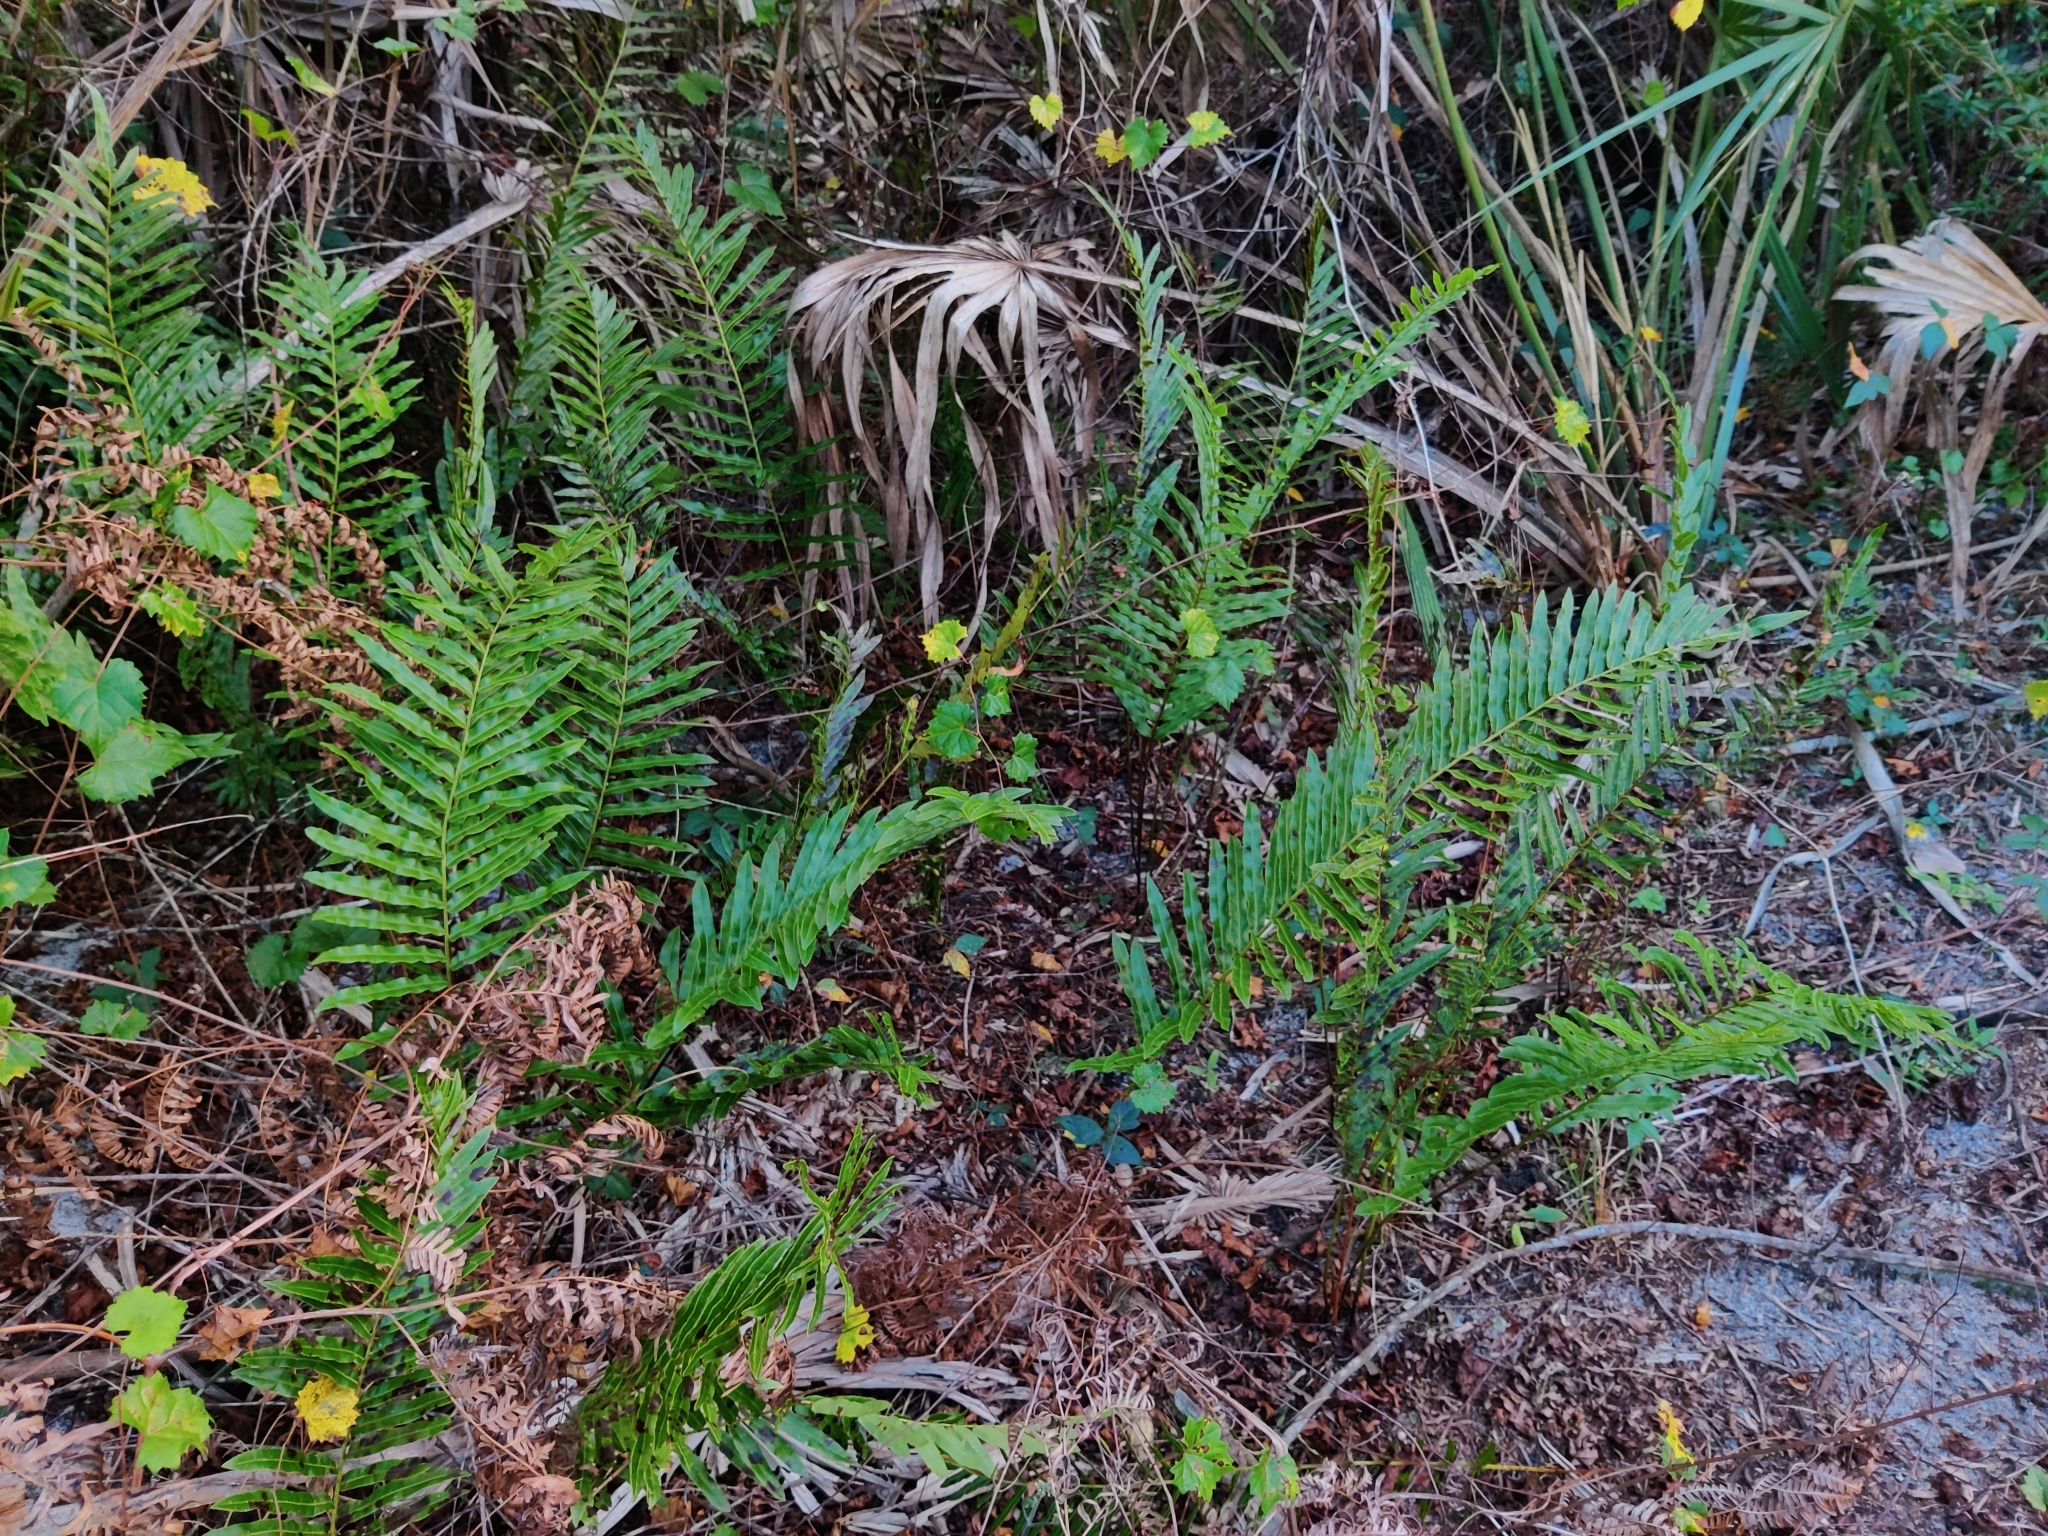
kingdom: Plantae
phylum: Tracheophyta
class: Polypodiopsida
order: Polypodiales
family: Blechnaceae
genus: Telmatoblechnum
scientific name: Telmatoblechnum serrulatum
